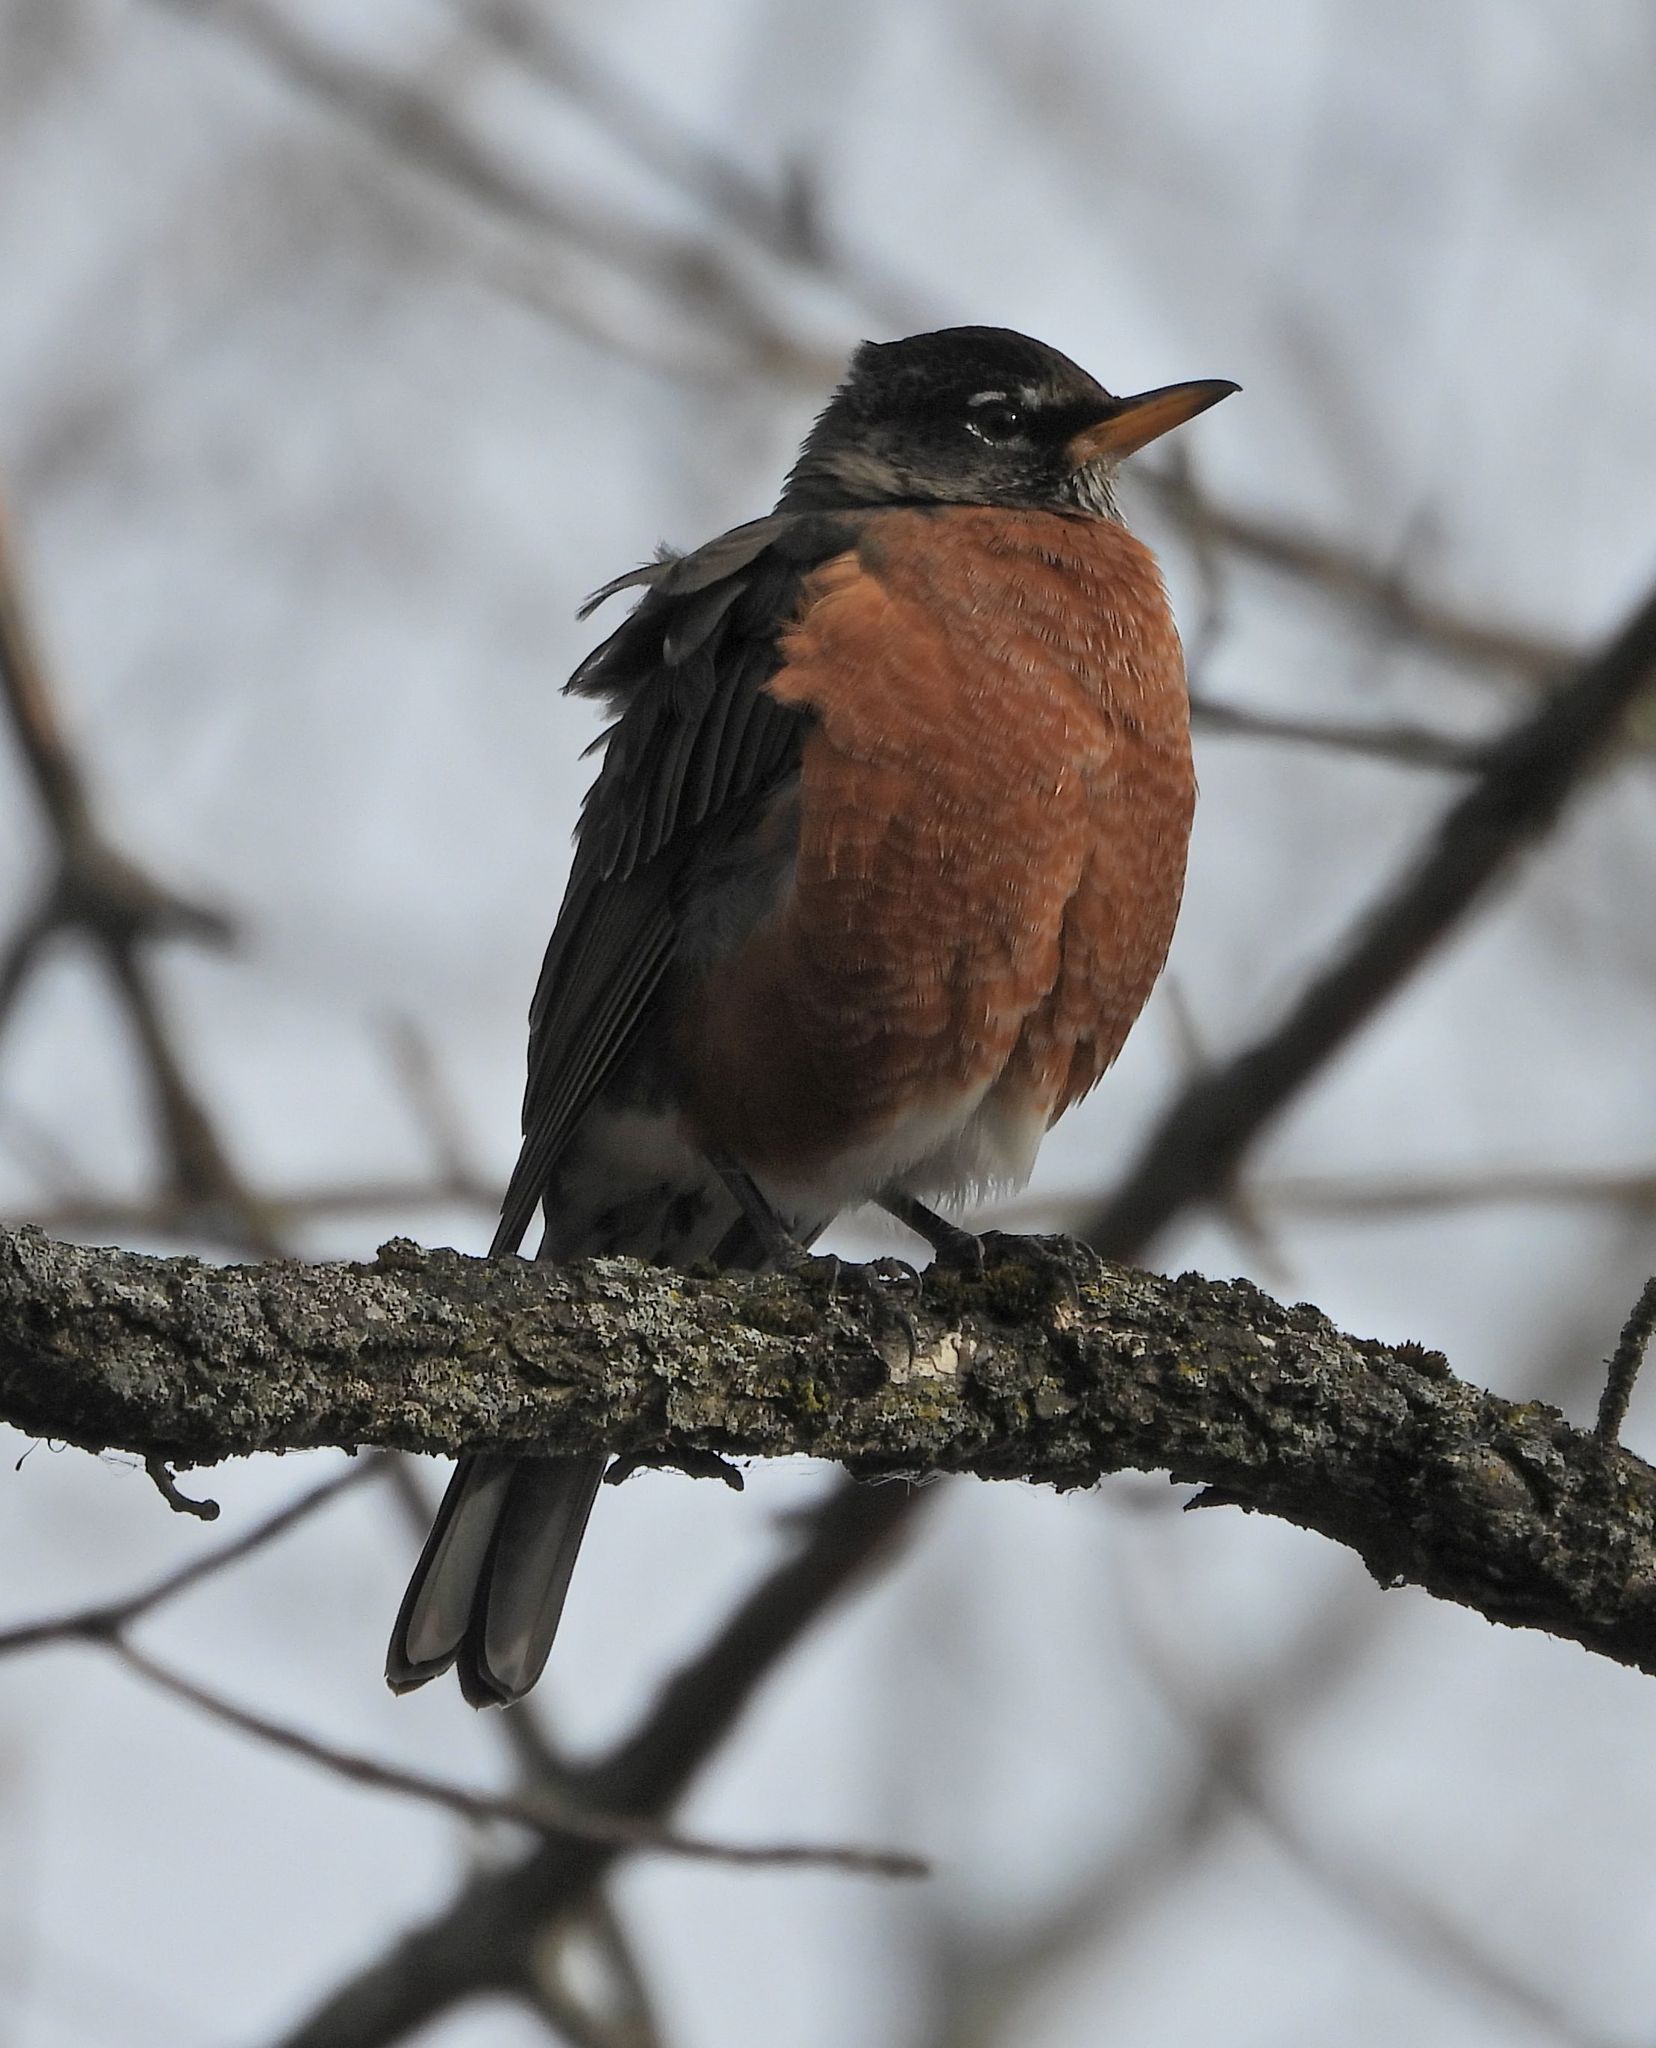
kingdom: Animalia
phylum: Chordata
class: Aves
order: Passeriformes
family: Turdidae
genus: Turdus
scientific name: Turdus migratorius
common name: American robin
